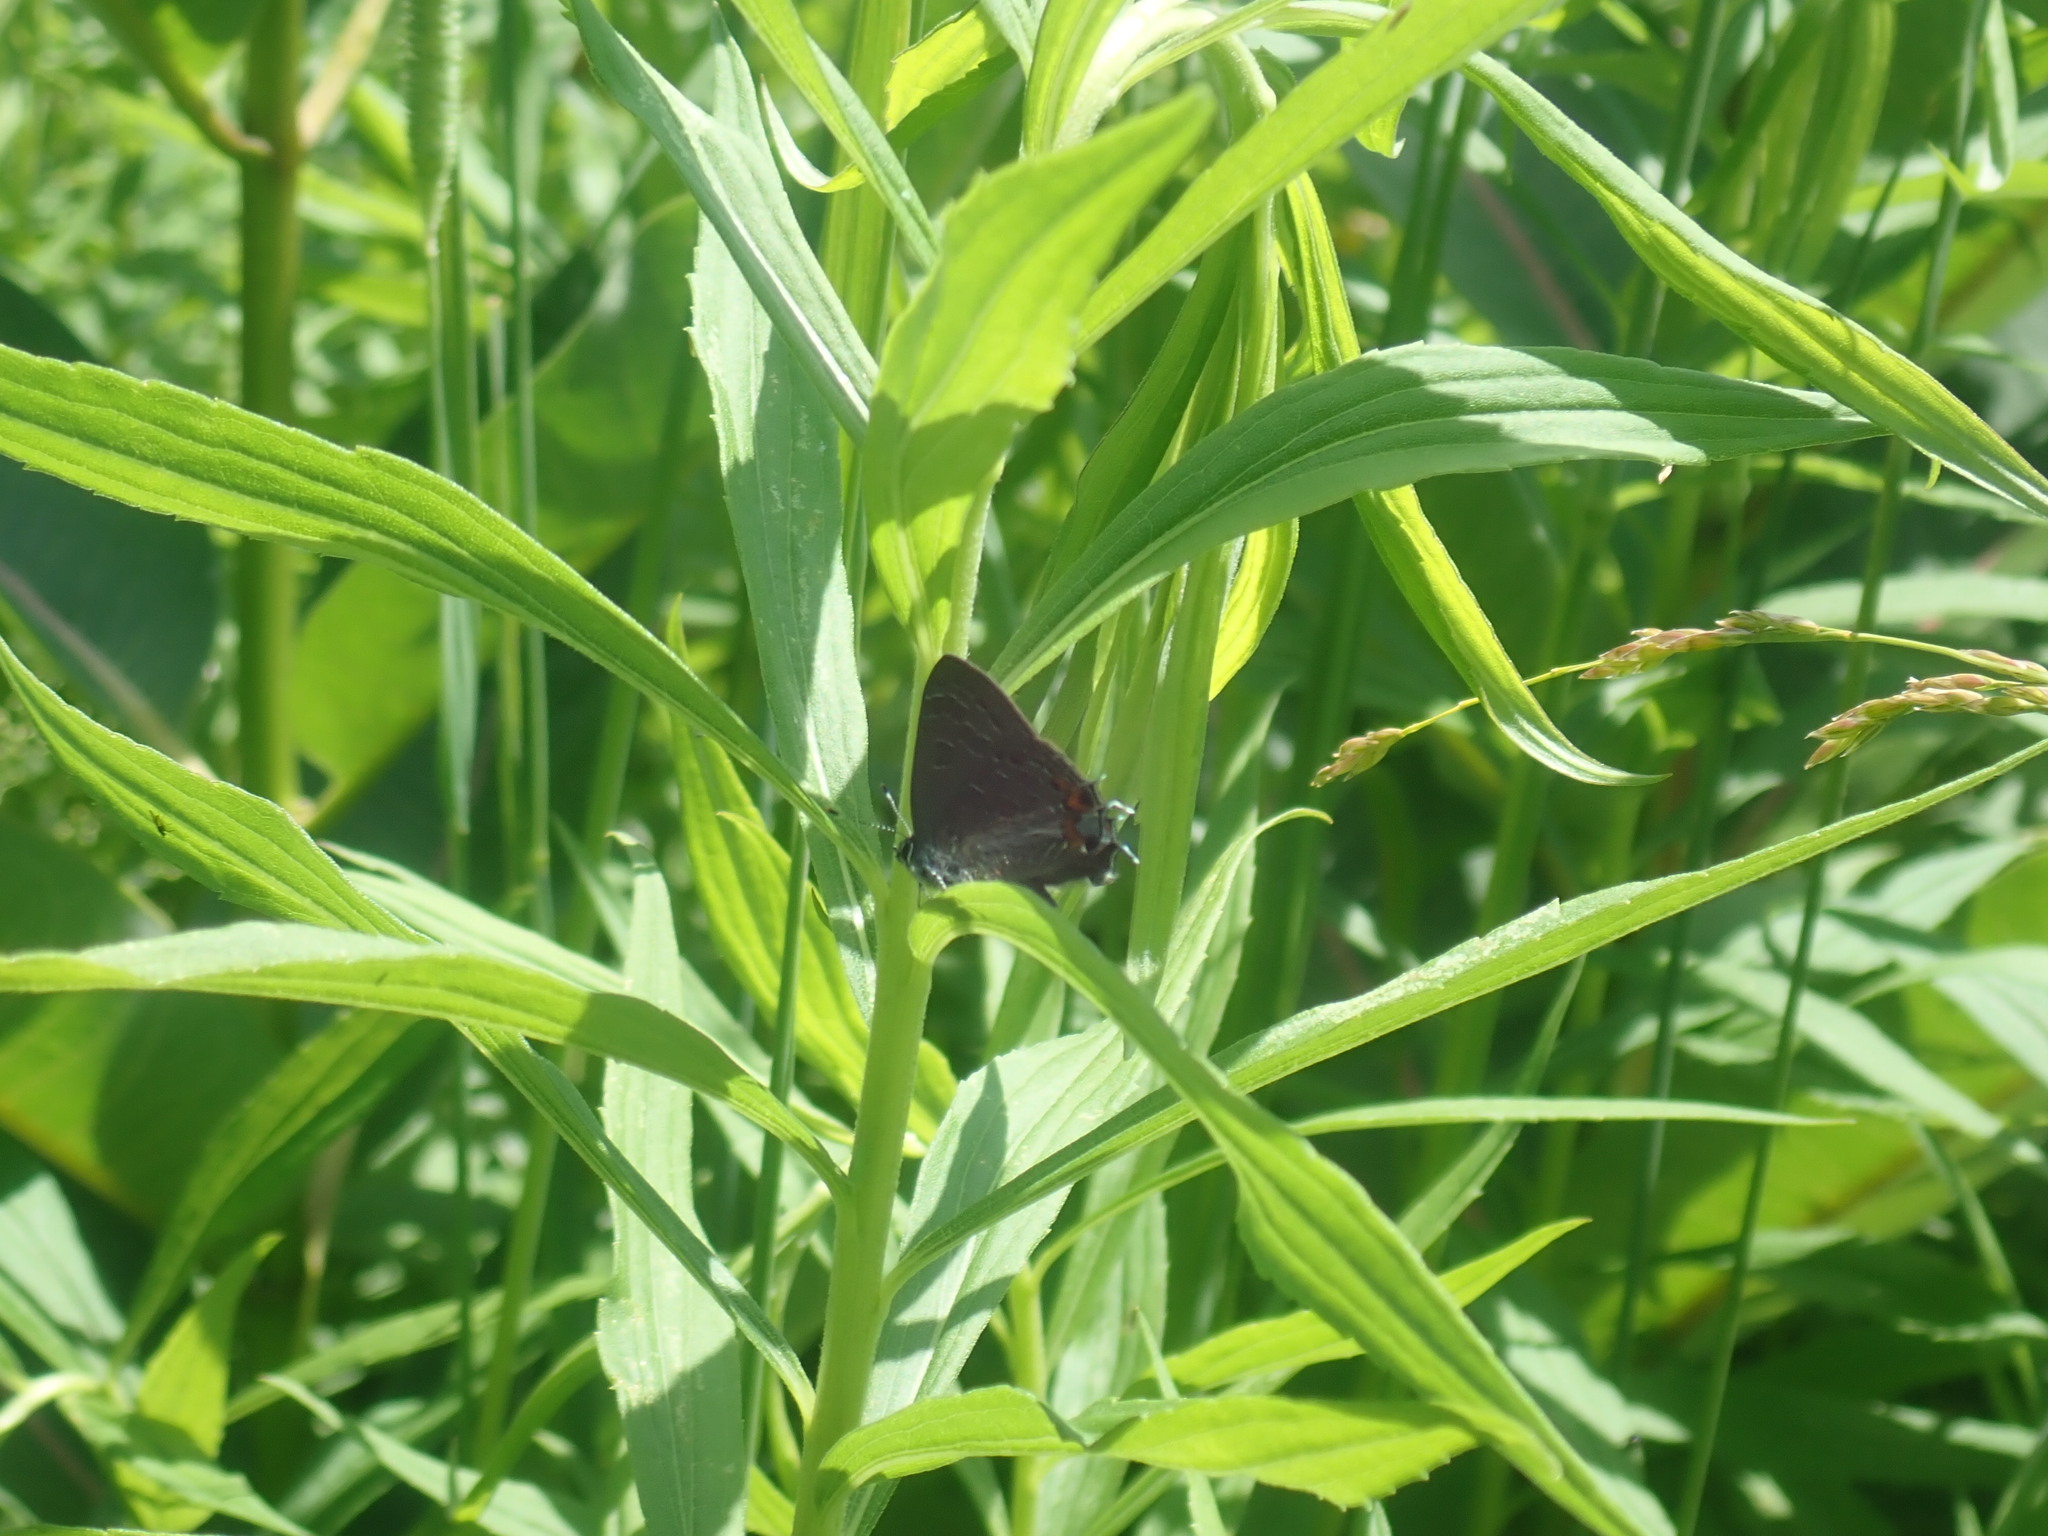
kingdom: Animalia
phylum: Arthropoda
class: Insecta
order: Lepidoptera
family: Lycaenidae
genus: Satyrium
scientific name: Satyrium liparops
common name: Striped hairstreak
